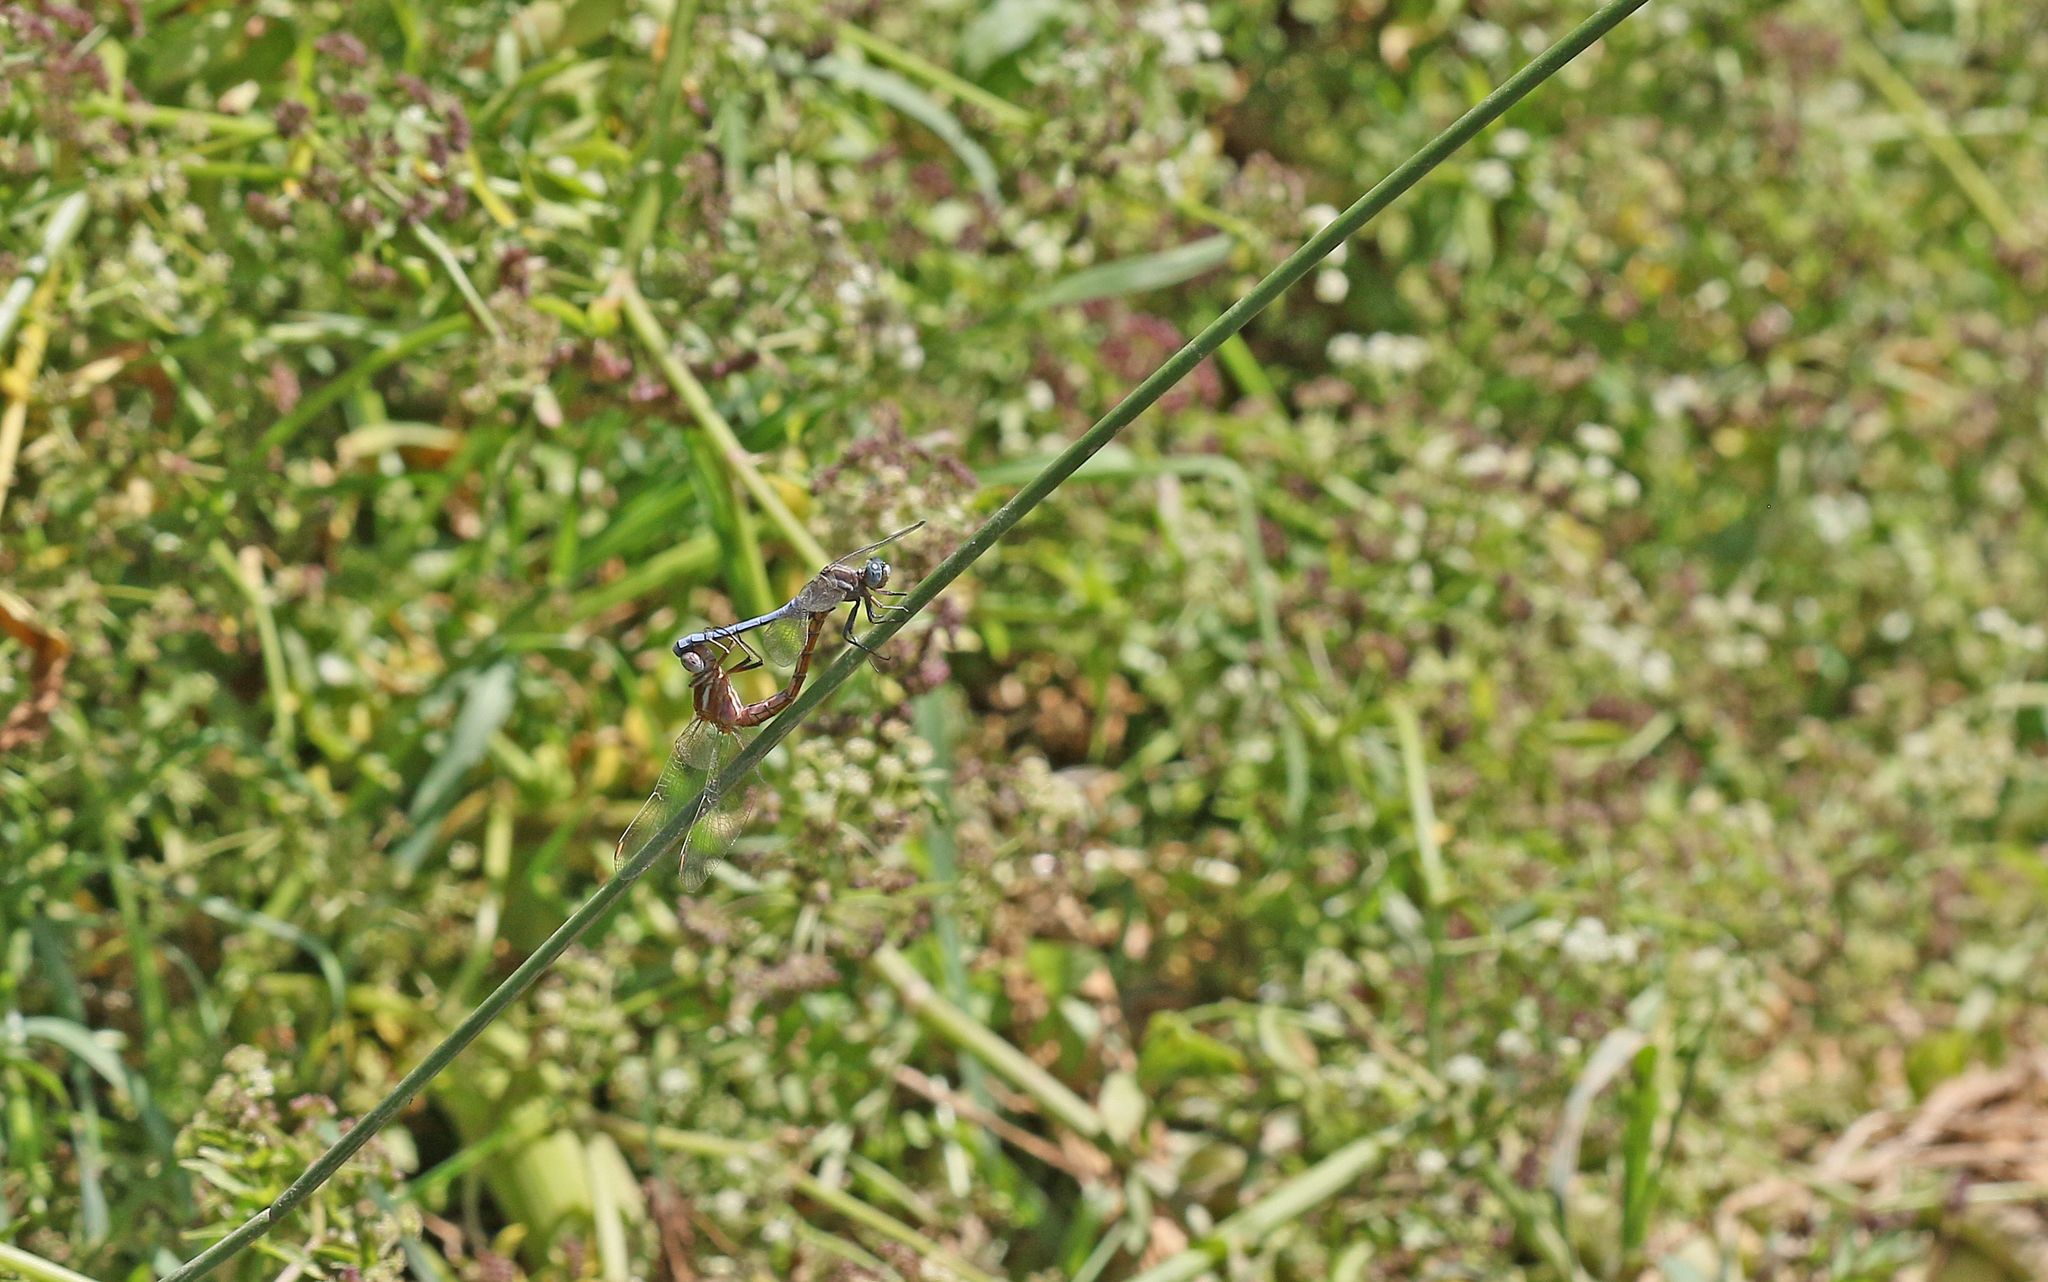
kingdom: Animalia
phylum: Arthropoda
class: Insecta
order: Odonata
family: Libellulidae
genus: Orthetrum
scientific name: Orthetrum chrysostigma
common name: Epaulet skimmer
